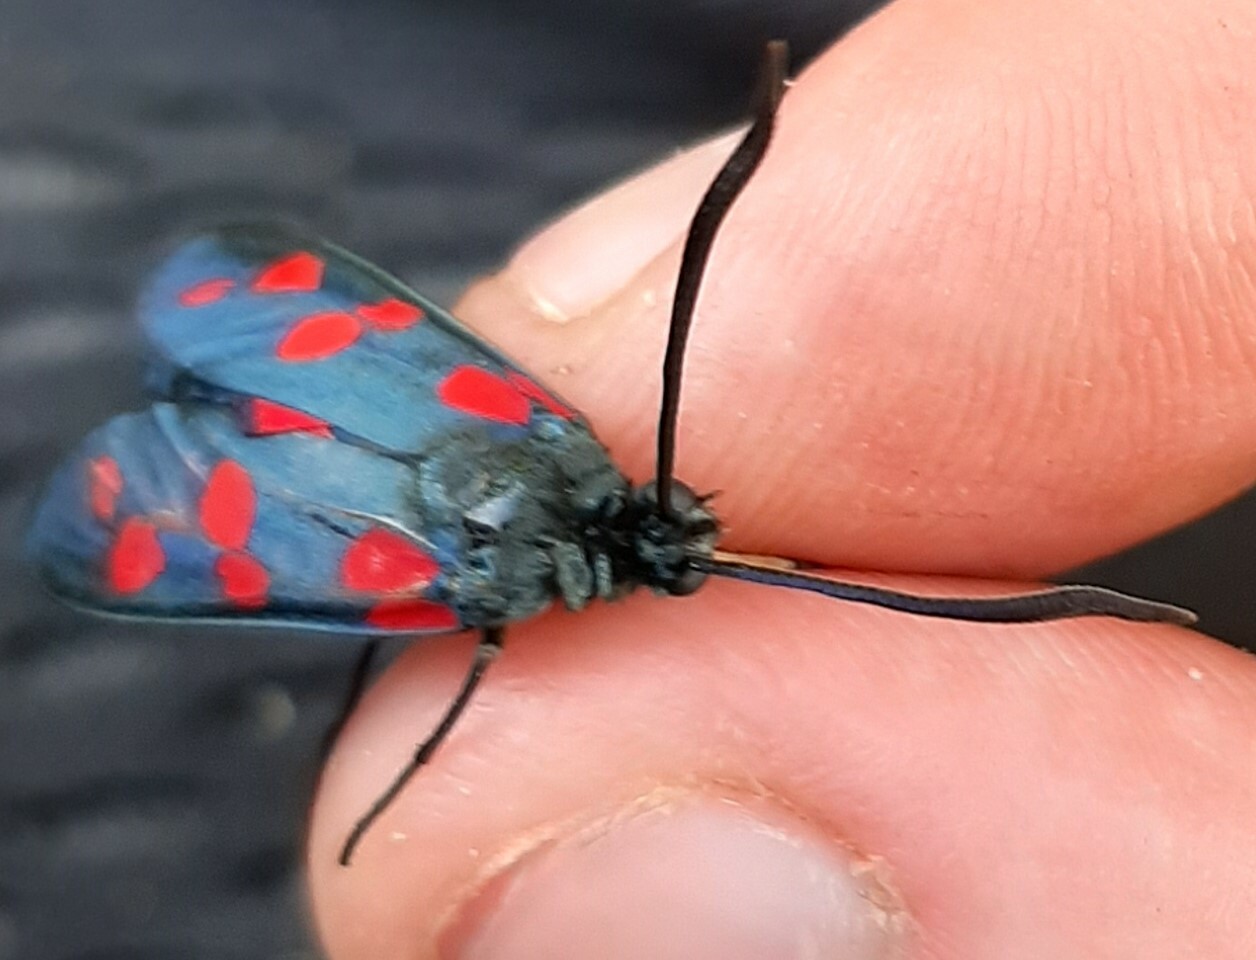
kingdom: Animalia
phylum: Arthropoda
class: Insecta
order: Lepidoptera
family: Zygaenidae
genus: Zygaena
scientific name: Zygaena filipendulae
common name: Six-spot burnet
